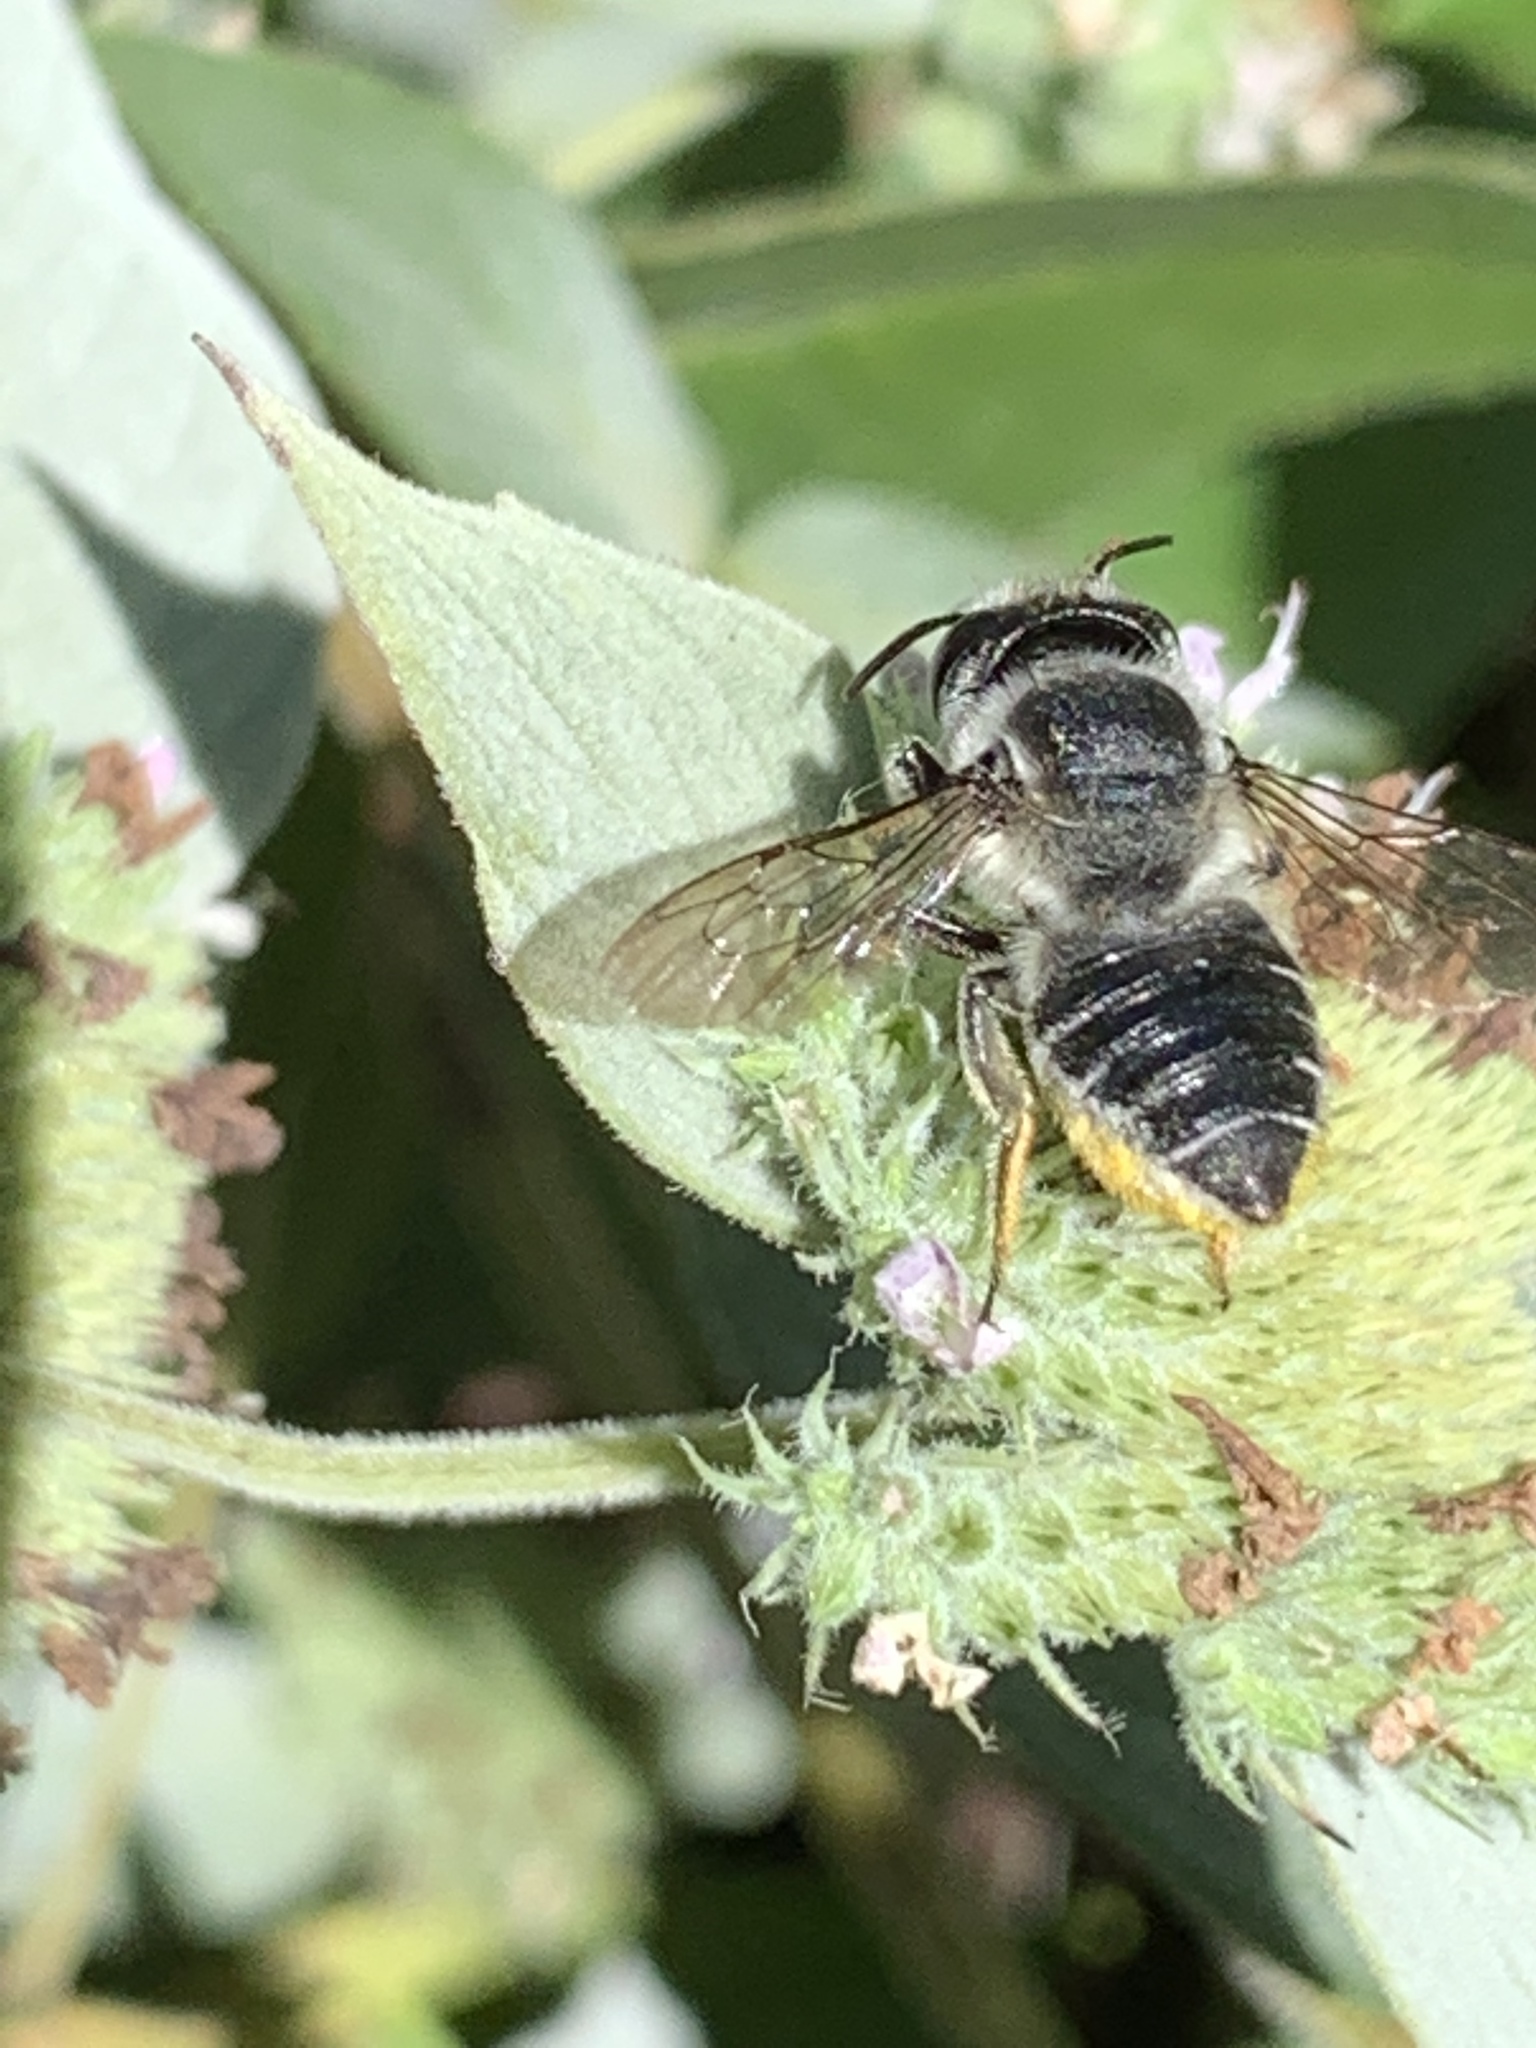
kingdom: Animalia
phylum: Arthropoda
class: Insecta
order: Hymenoptera
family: Megachilidae
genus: Megachile
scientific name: Megachile
